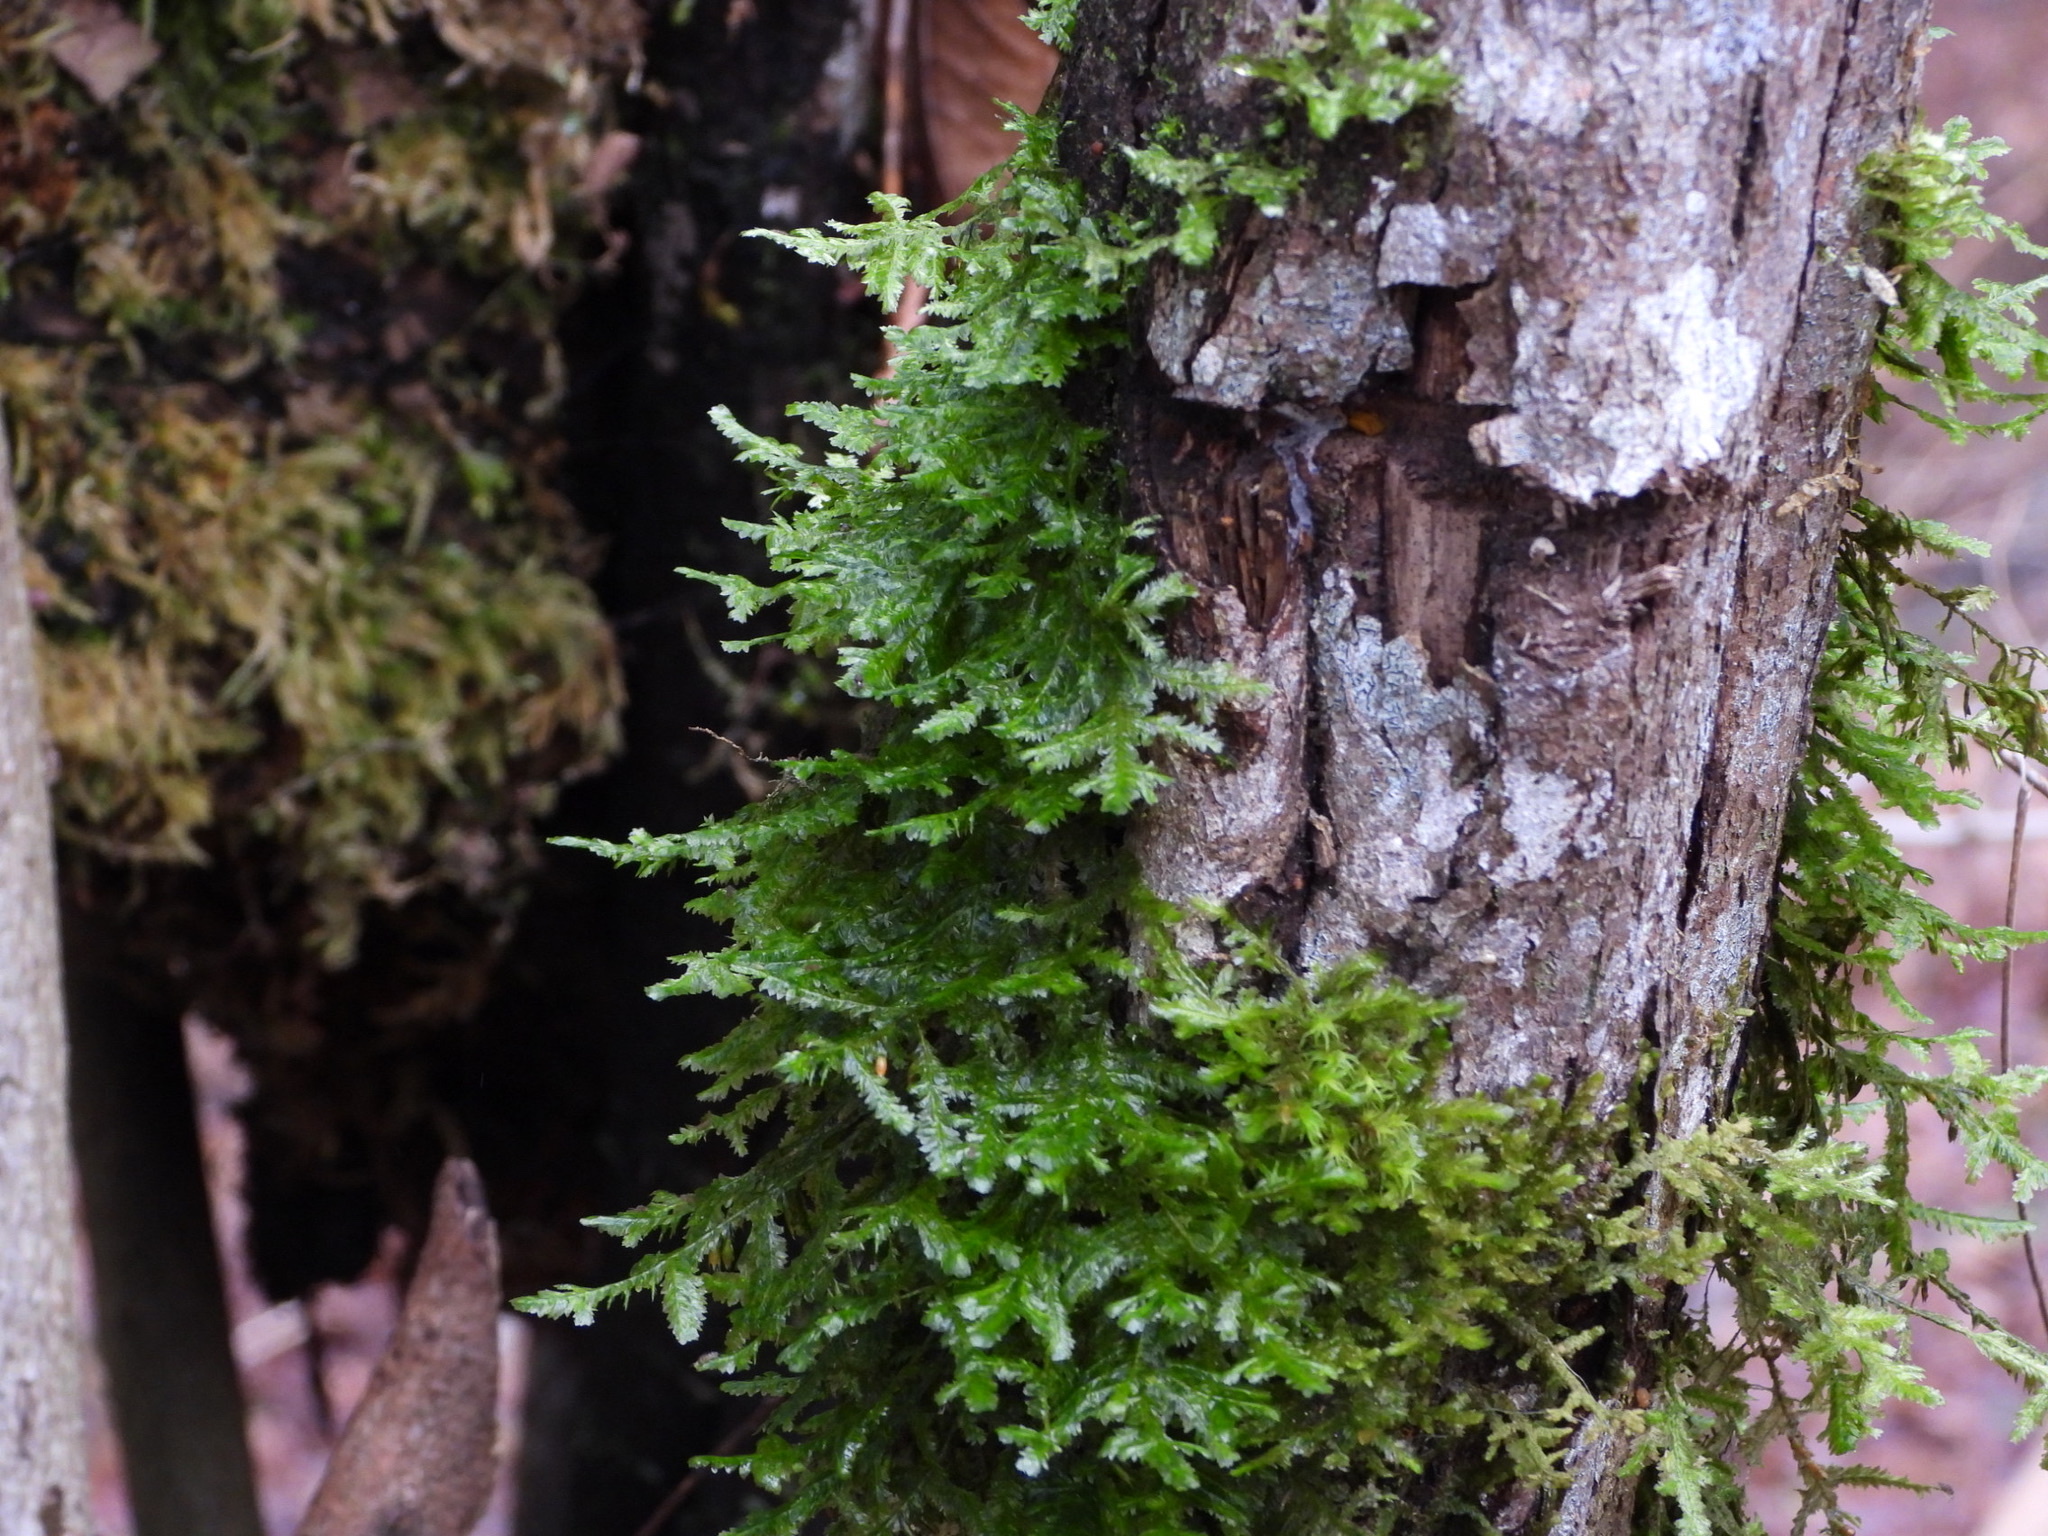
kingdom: Plantae
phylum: Bryophyta
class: Bryopsida
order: Hypnales
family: Neckeraceae
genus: Neckera
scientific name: Neckera pennata
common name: Feathery neckera
